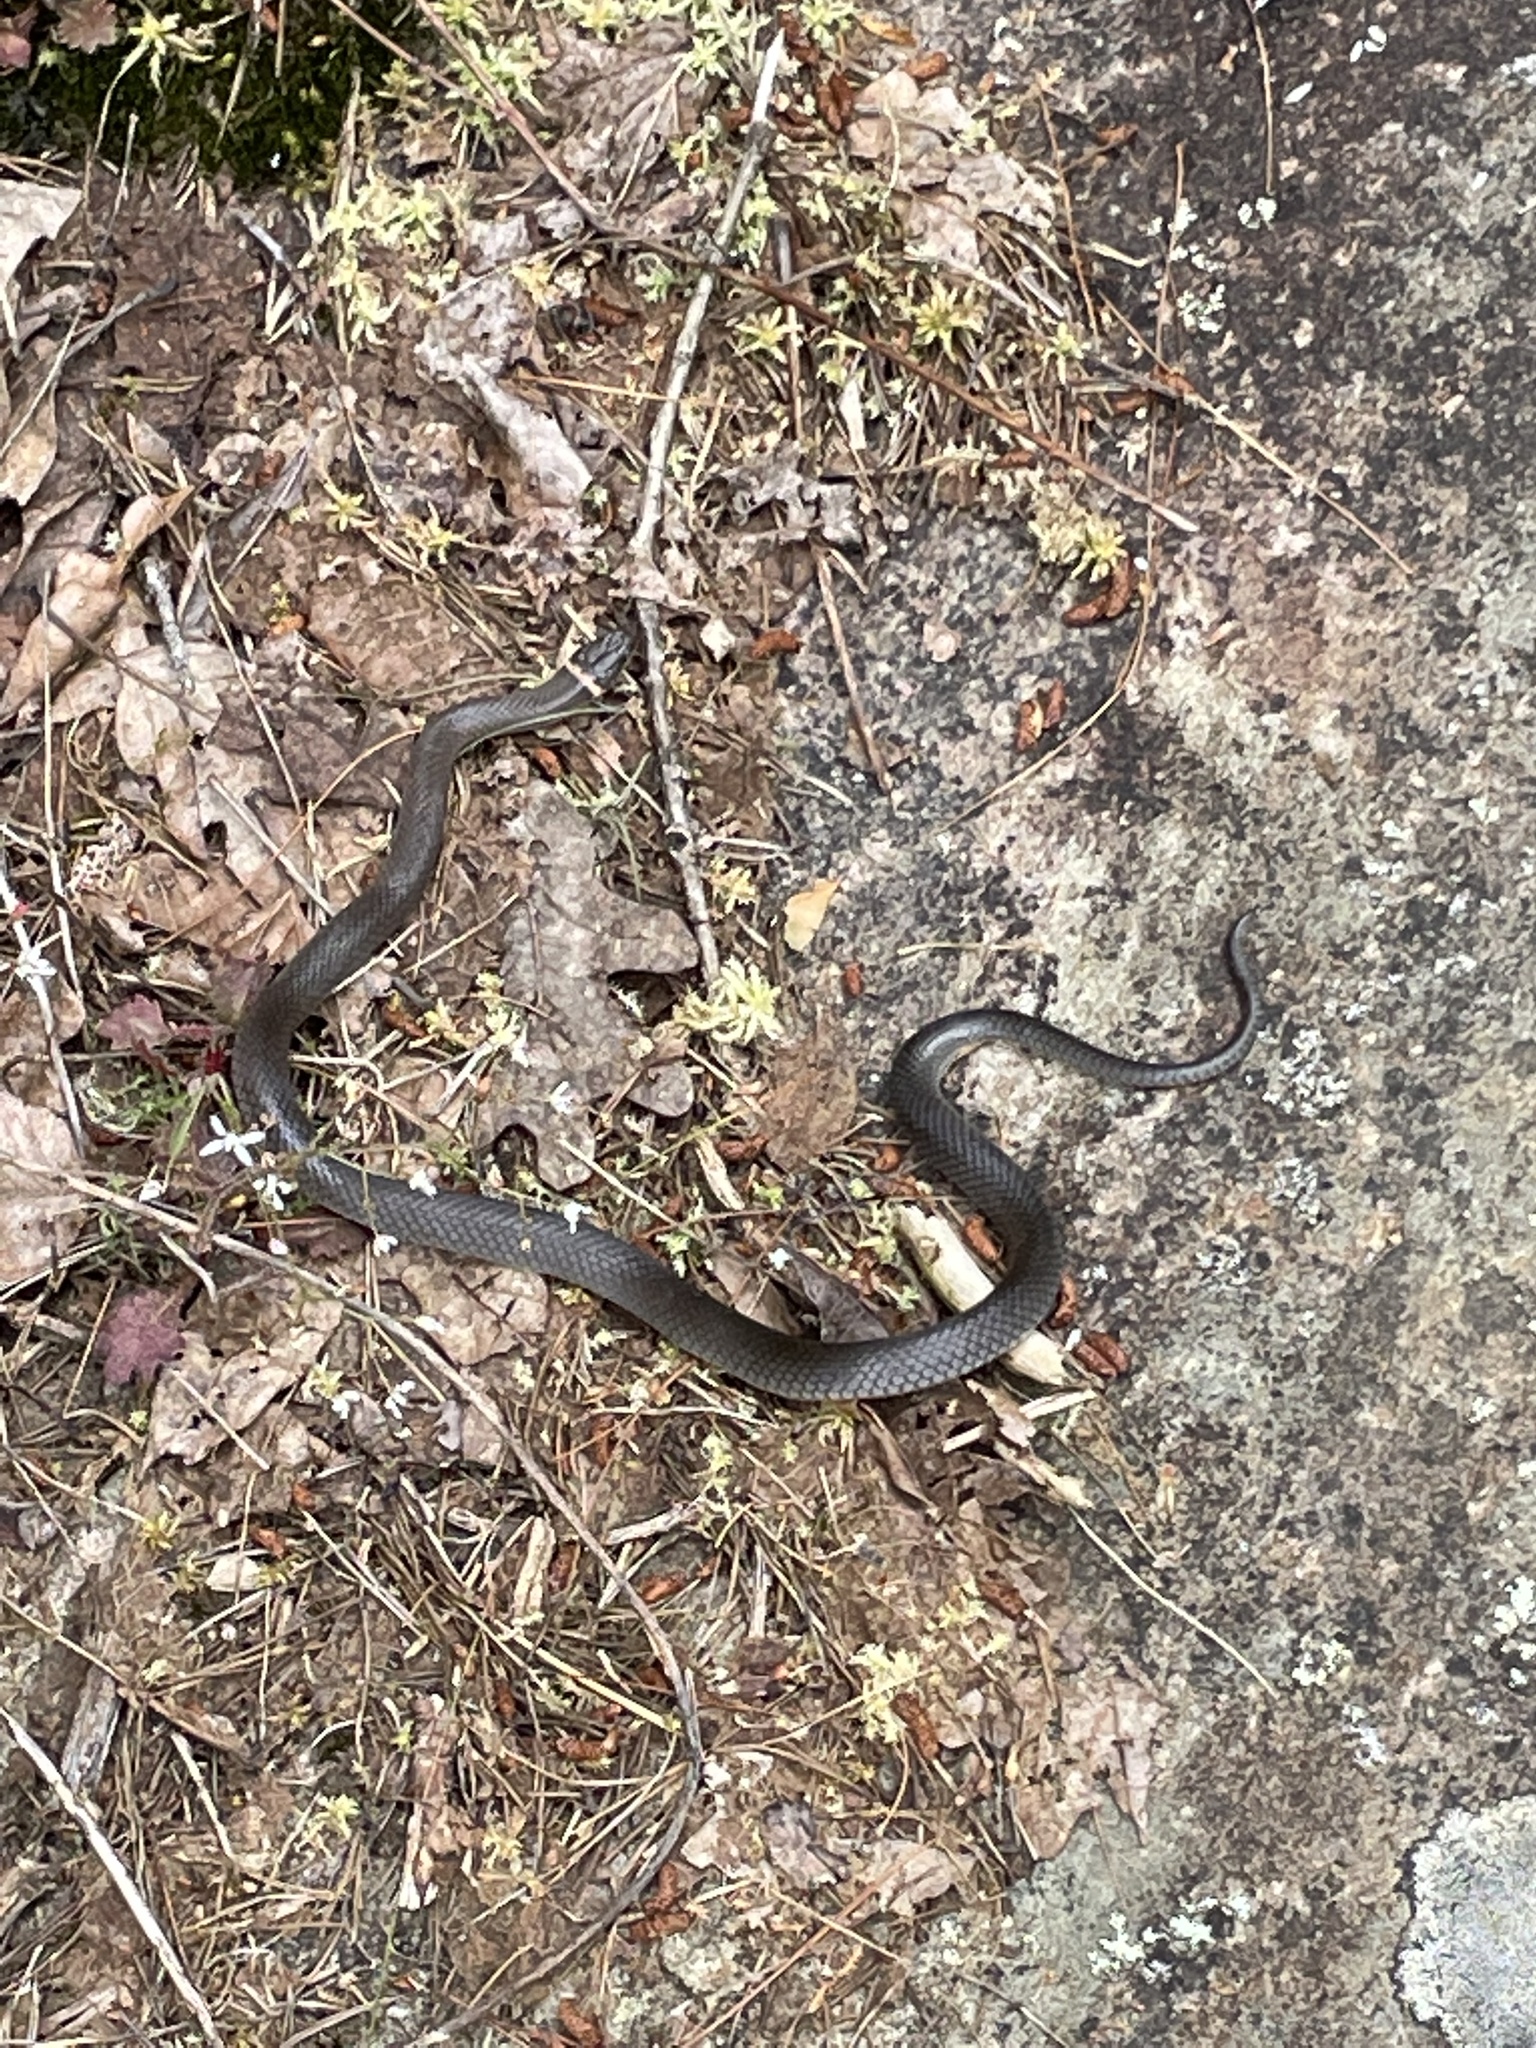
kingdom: Animalia
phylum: Chordata
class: Squamata
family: Colubridae
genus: Diadophis
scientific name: Diadophis punctatus
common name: Ringneck snake
